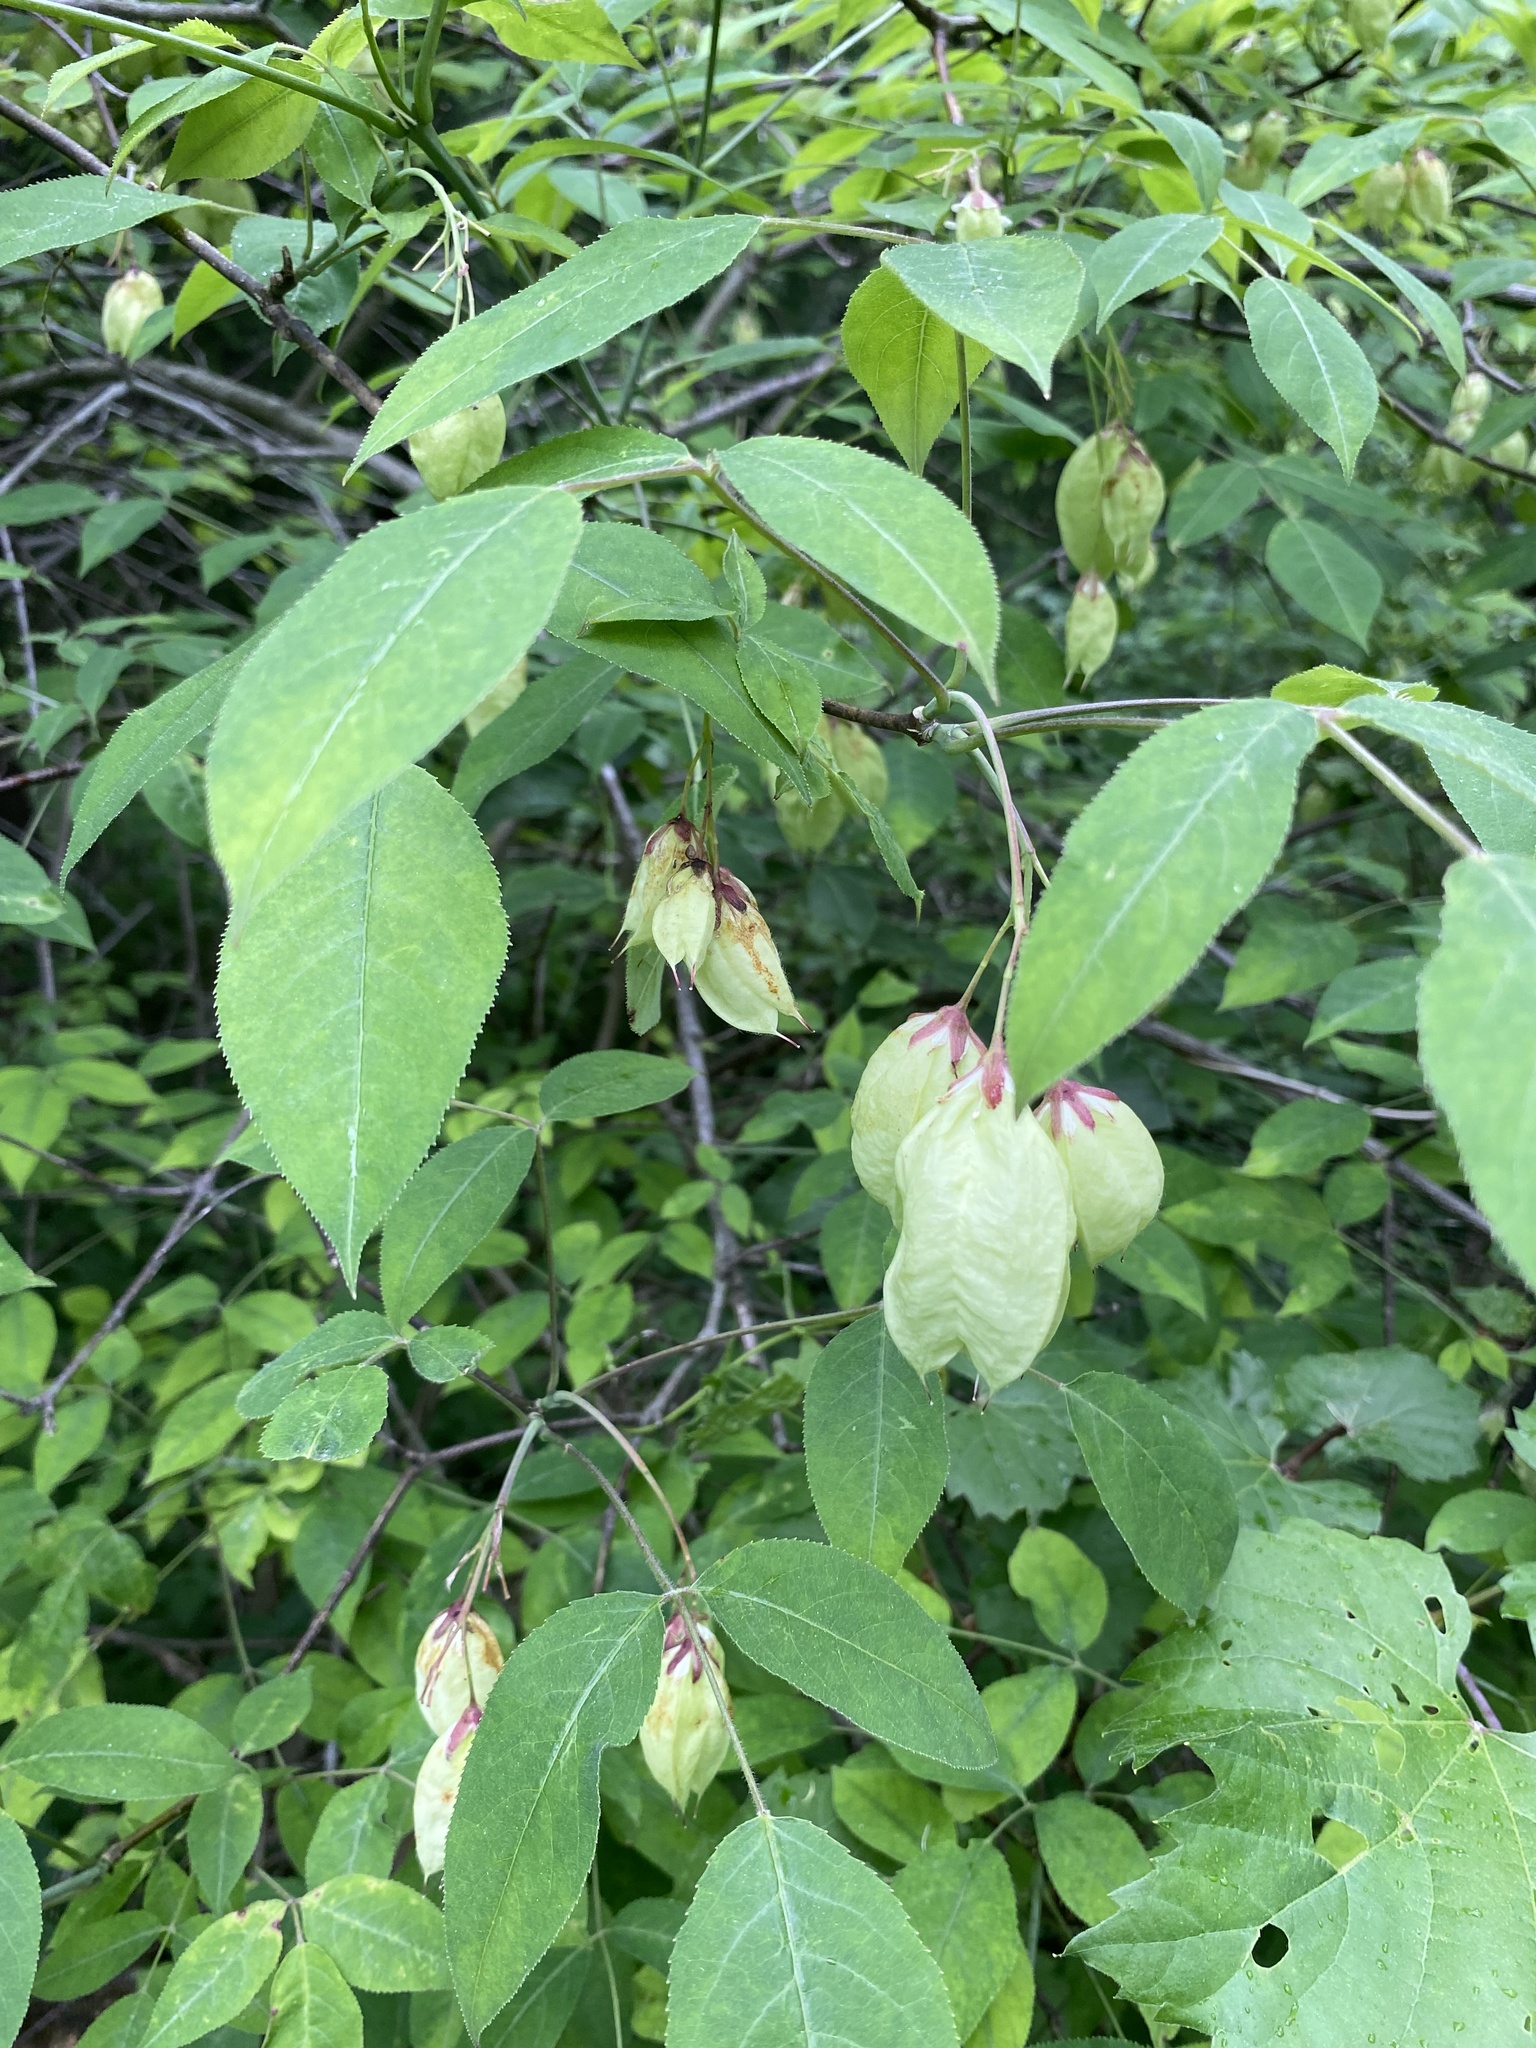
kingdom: Plantae
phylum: Tracheophyta
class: Magnoliopsida
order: Crossosomatales
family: Staphyleaceae
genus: Staphylea
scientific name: Staphylea trifolia
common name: American bladdernut
